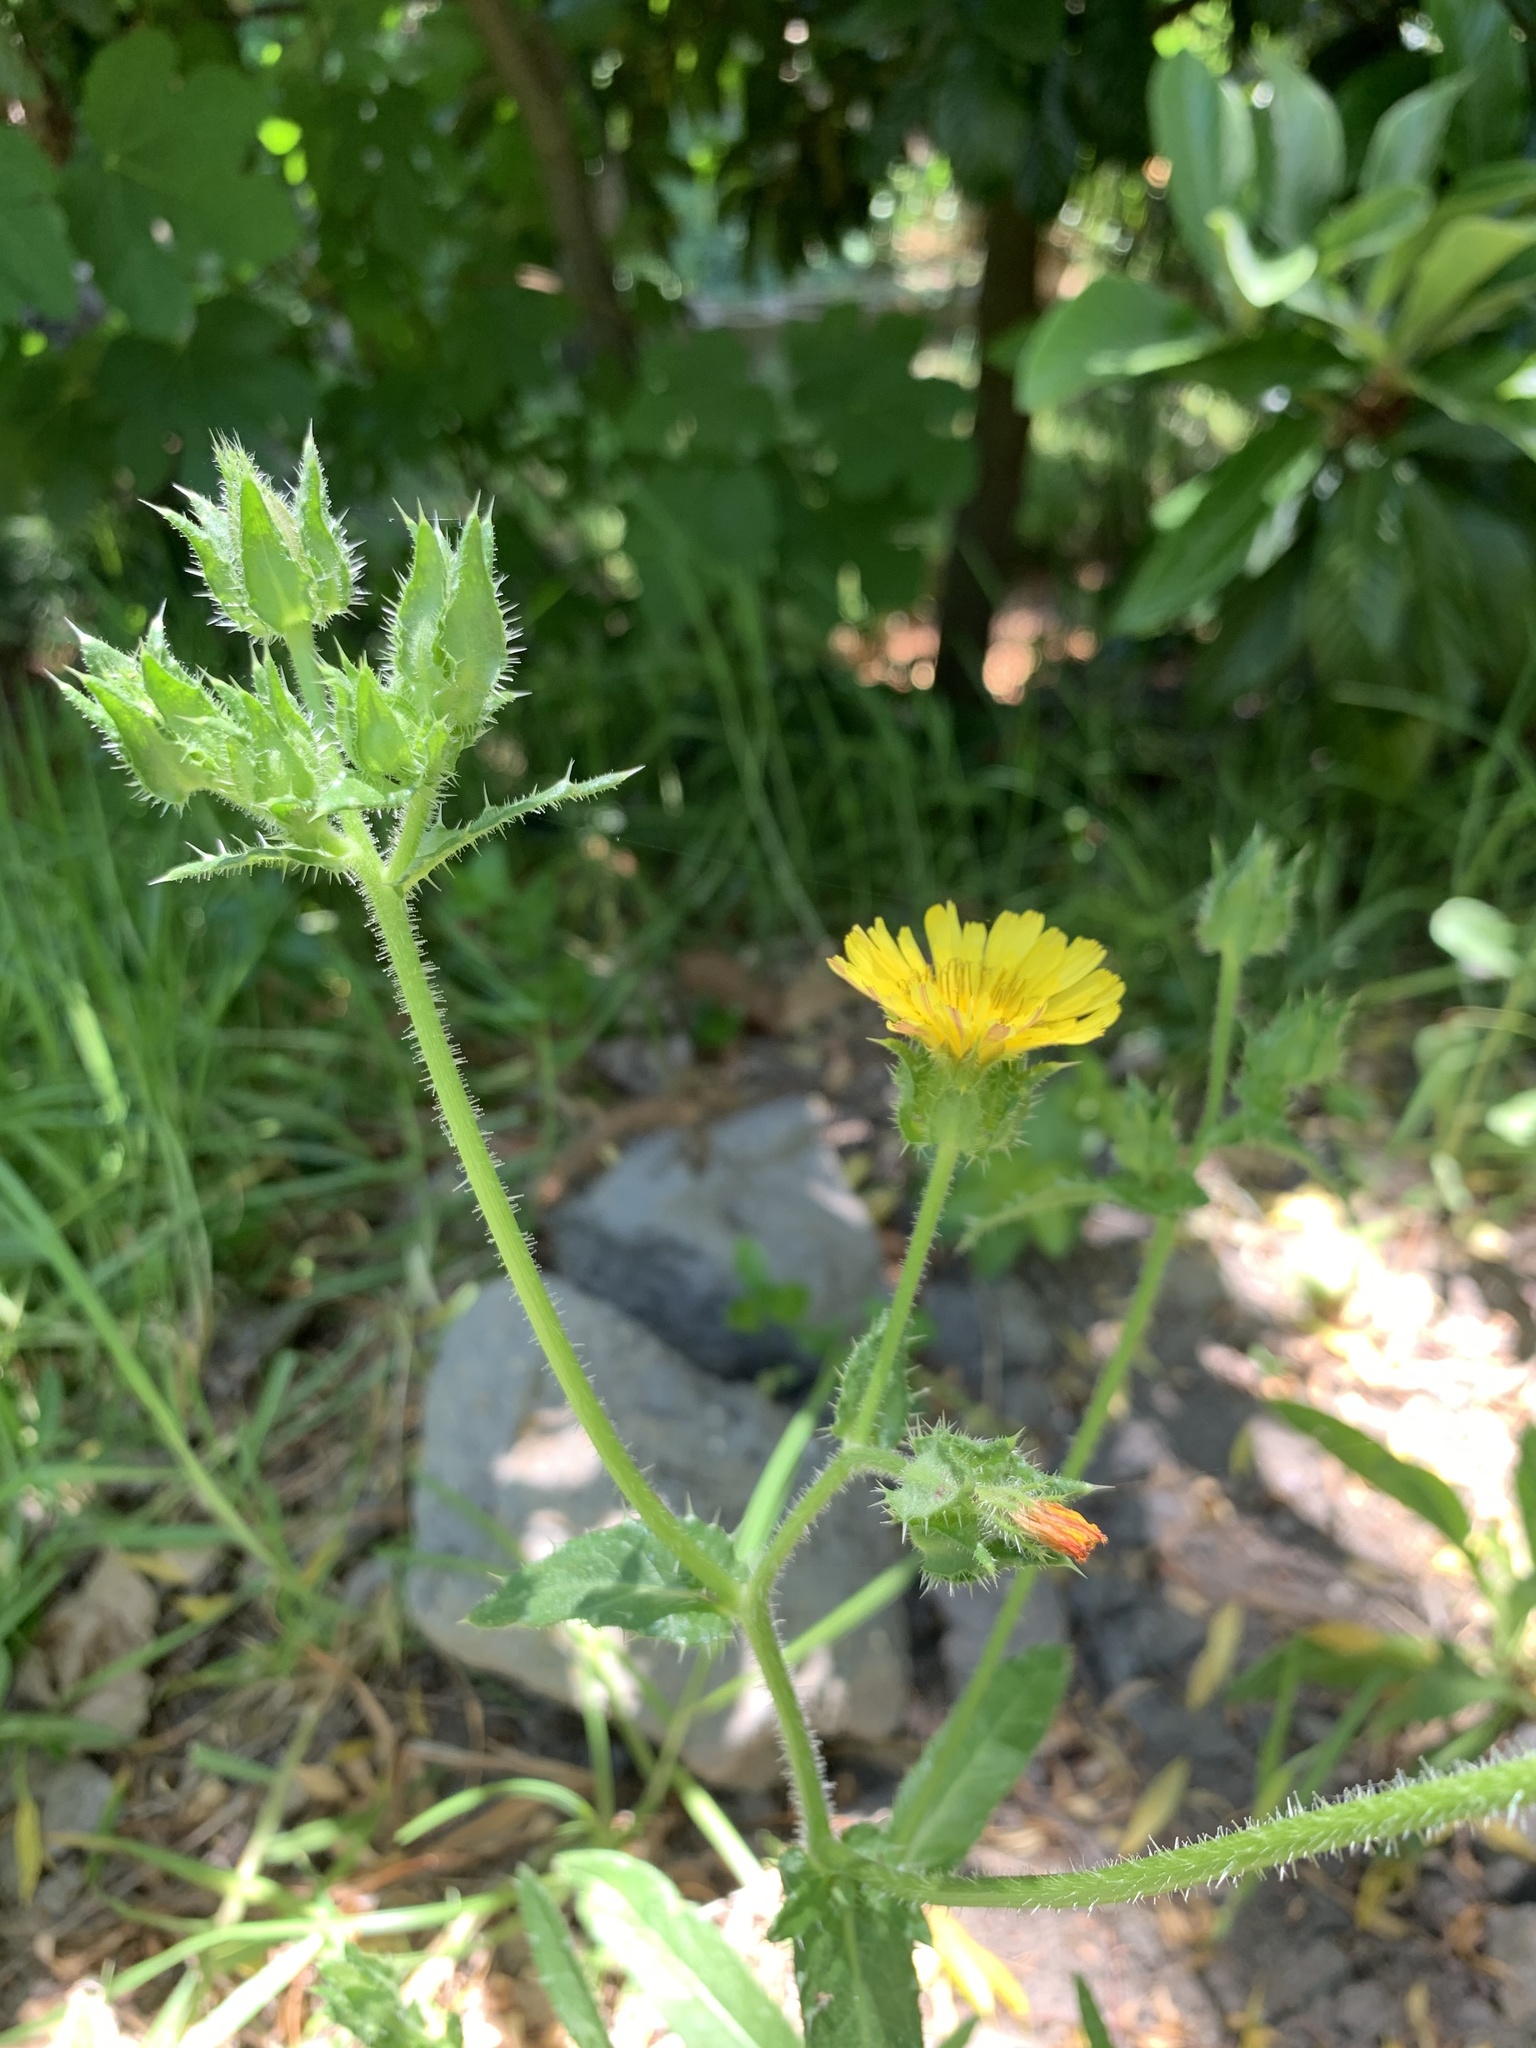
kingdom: Plantae
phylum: Tracheophyta
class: Magnoliopsida
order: Asterales
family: Asteraceae
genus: Helminthotheca
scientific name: Helminthotheca echioides
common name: Ox-tongue
